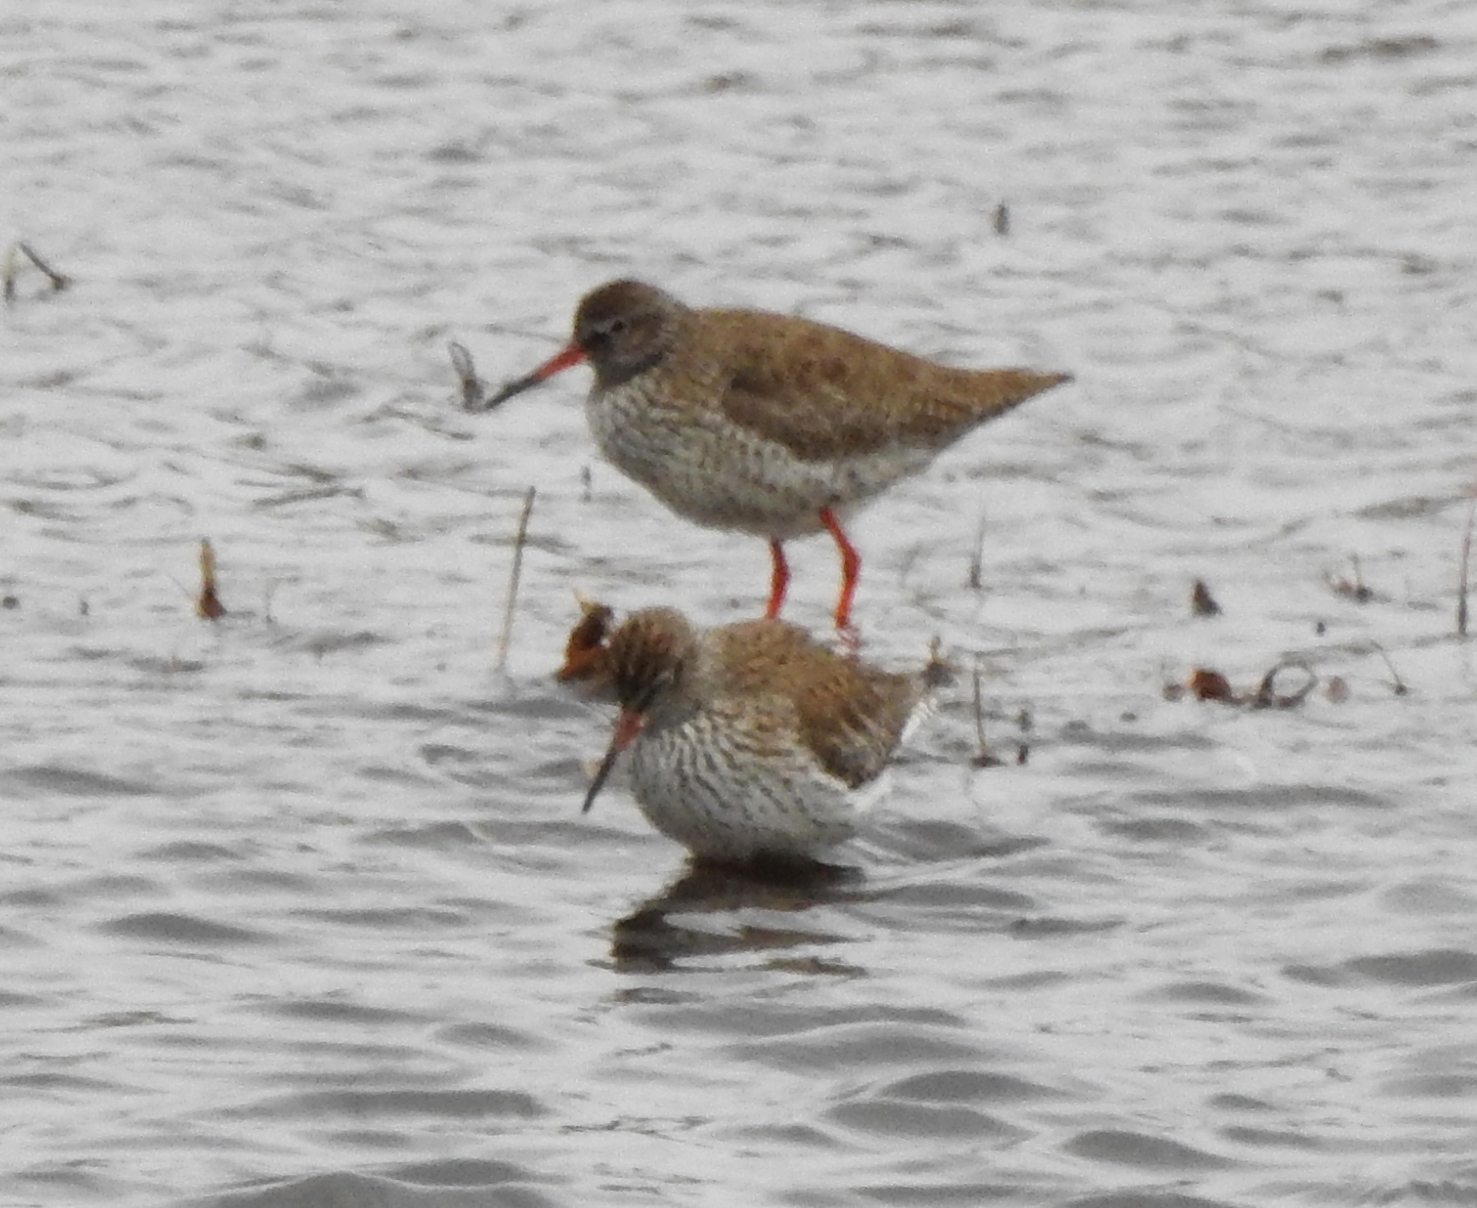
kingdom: Animalia
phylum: Chordata
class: Aves
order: Charadriiformes
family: Scolopacidae
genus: Tringa
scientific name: Tringa totanus
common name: Common redshank
